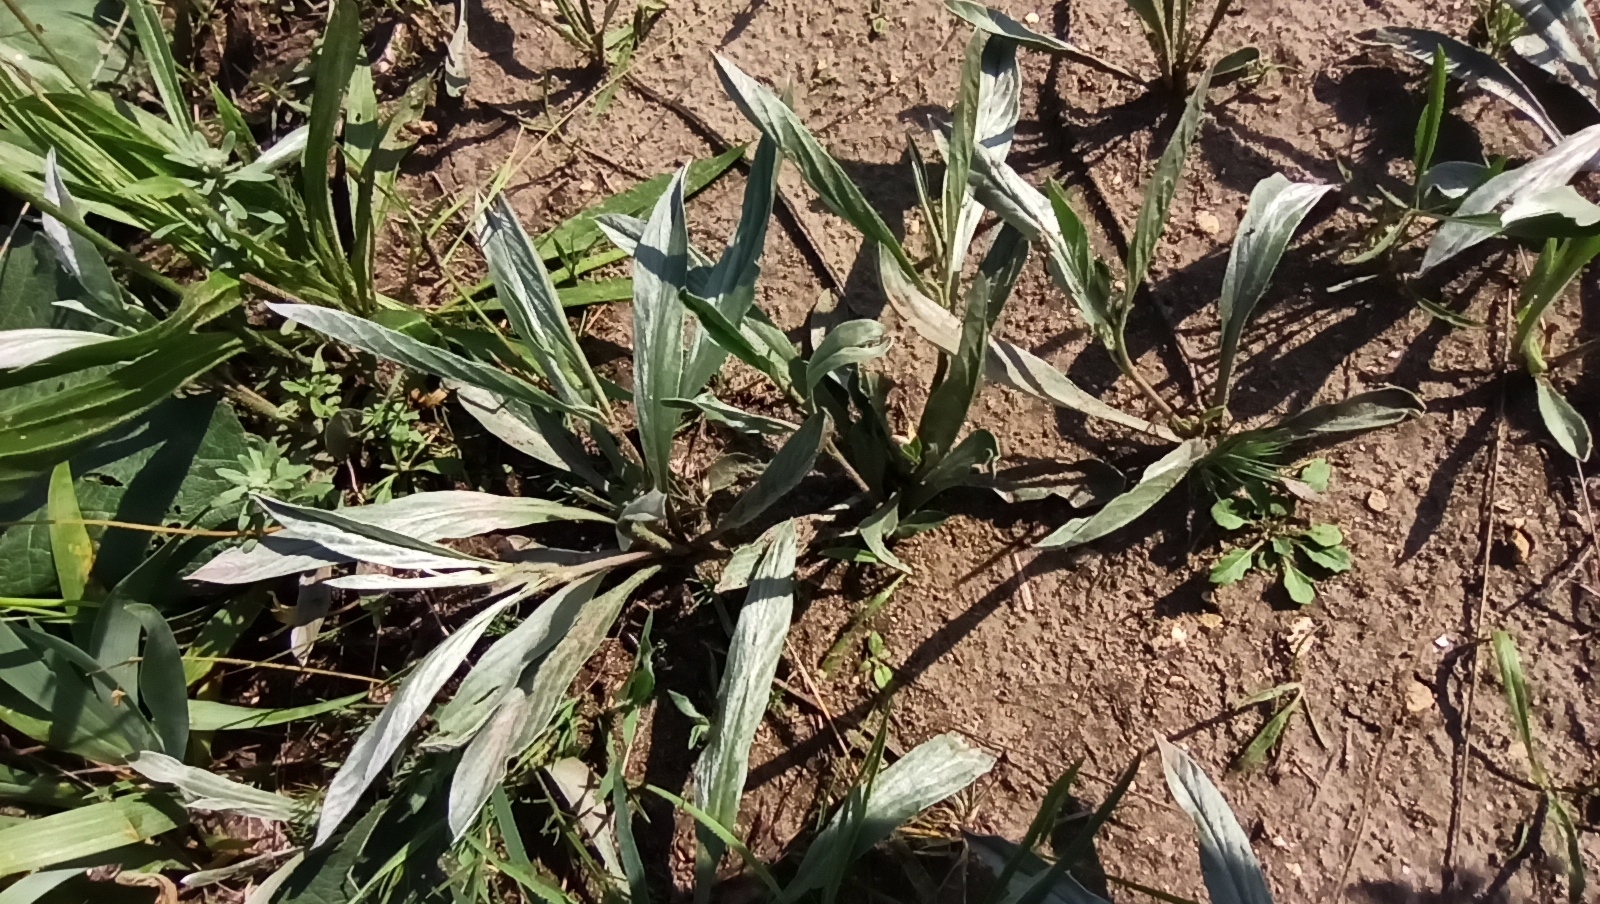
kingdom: Plantae
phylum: Tracheophyta
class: Magnoliopsida
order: Solanales
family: Convolvulaceae
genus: Convolvulus
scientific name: Convolvulus lineatus
